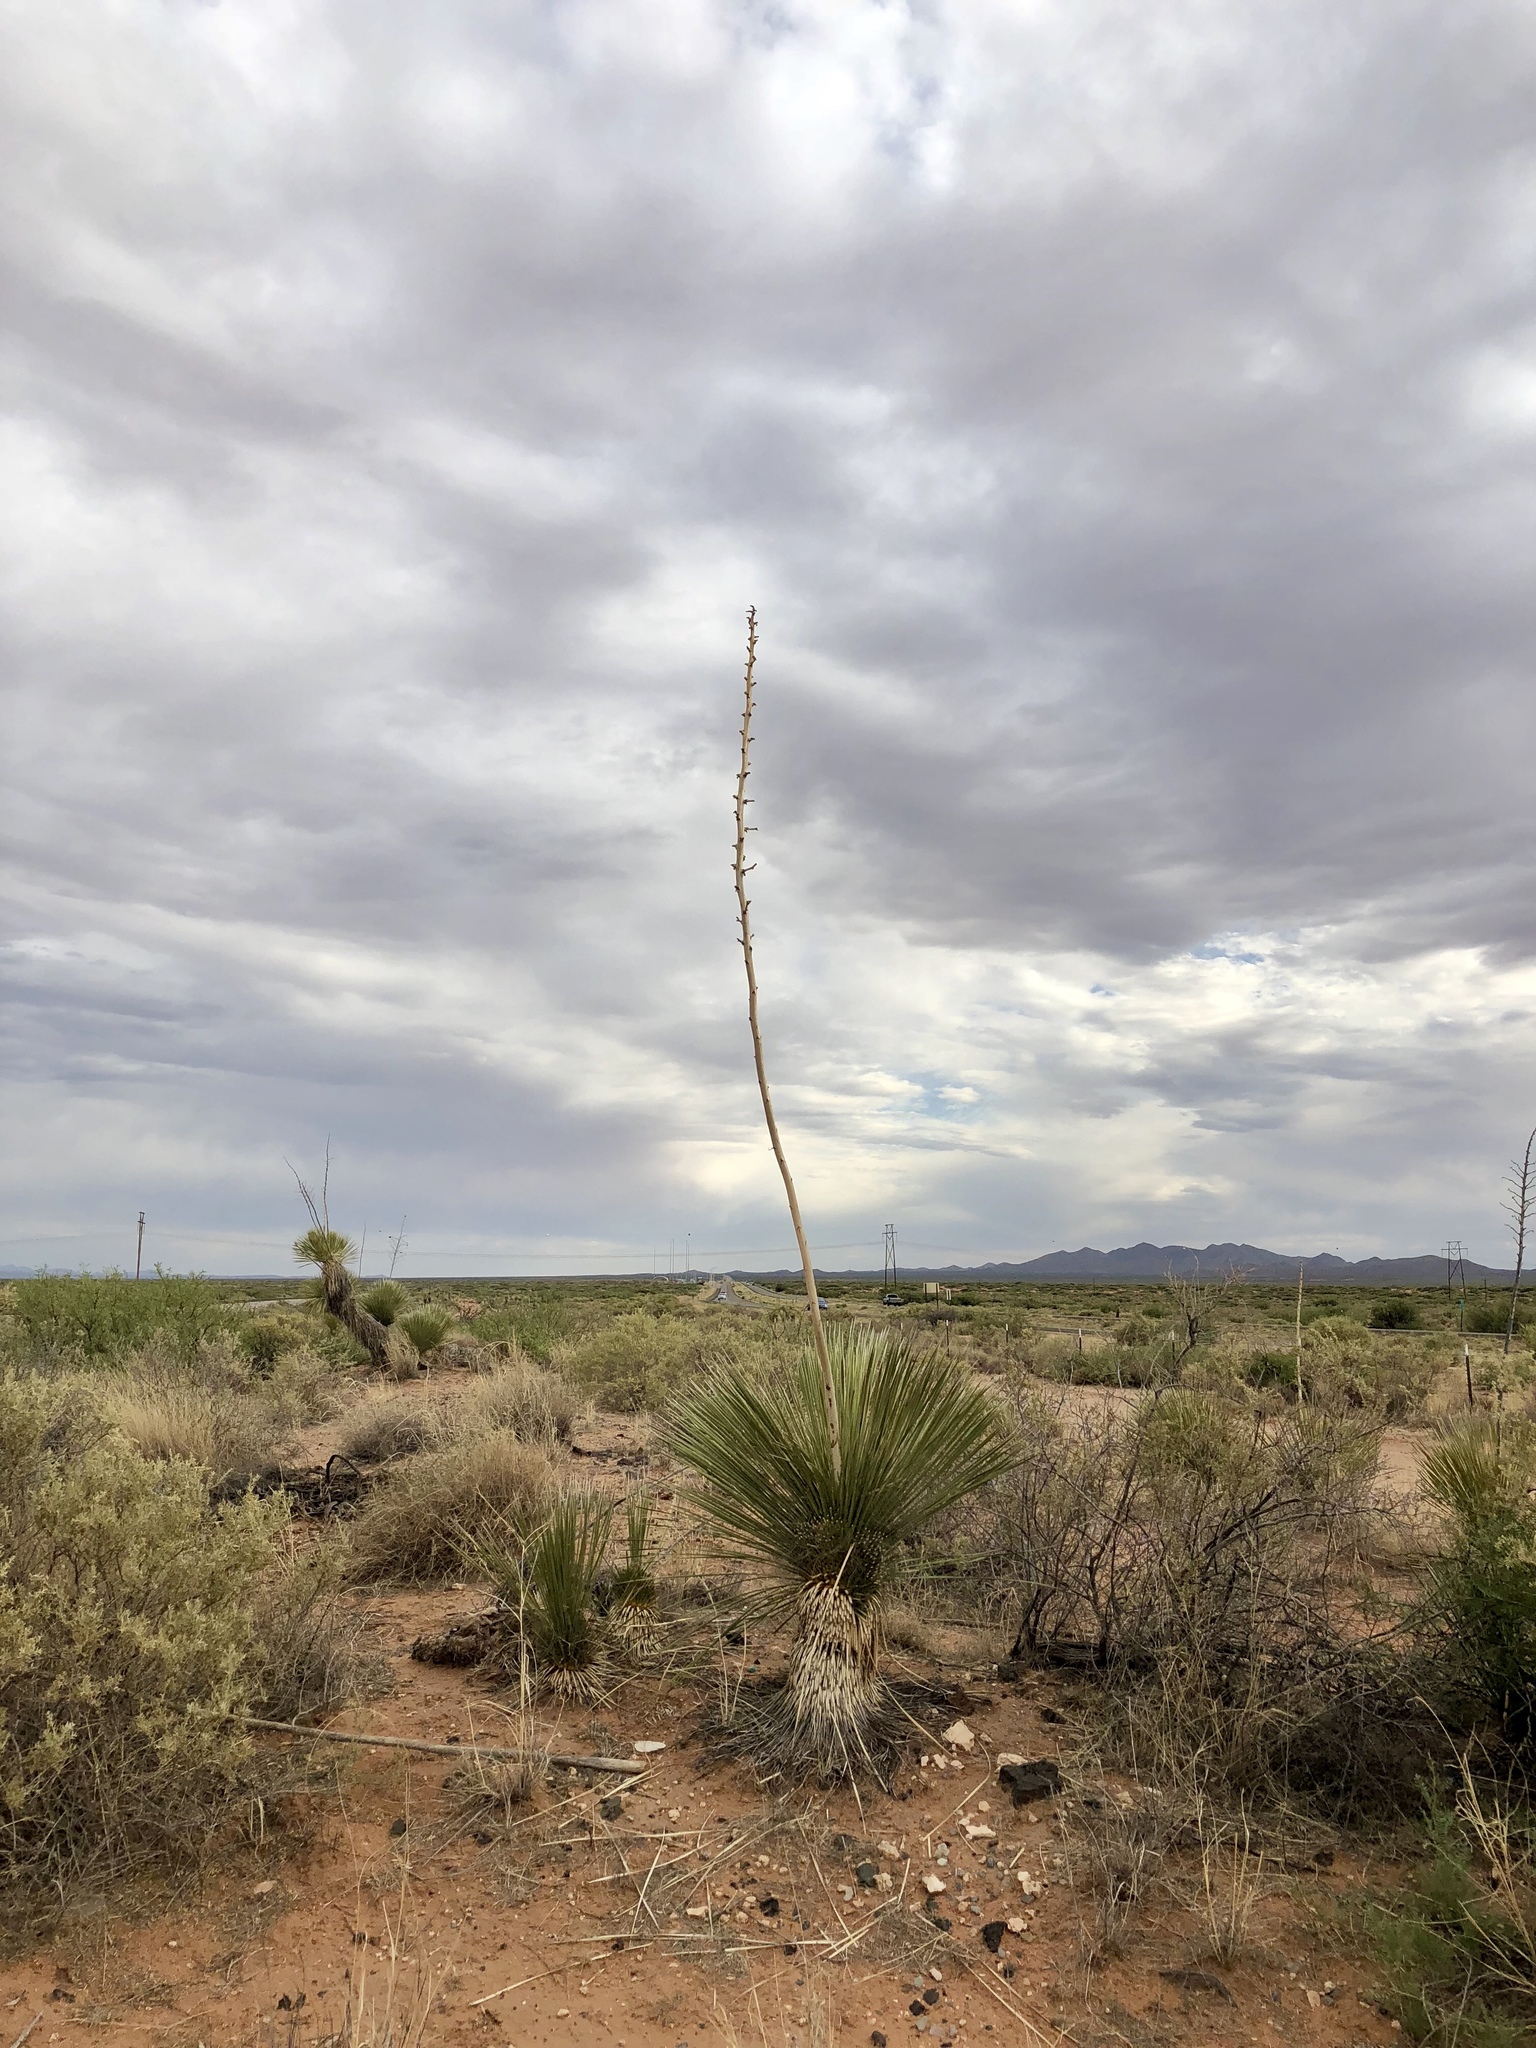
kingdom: Plantae
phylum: Tracheophyta
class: Liliopsida
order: Asparagales
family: Asparagaceae
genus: Yucca
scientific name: Yucca elata
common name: Palmella
